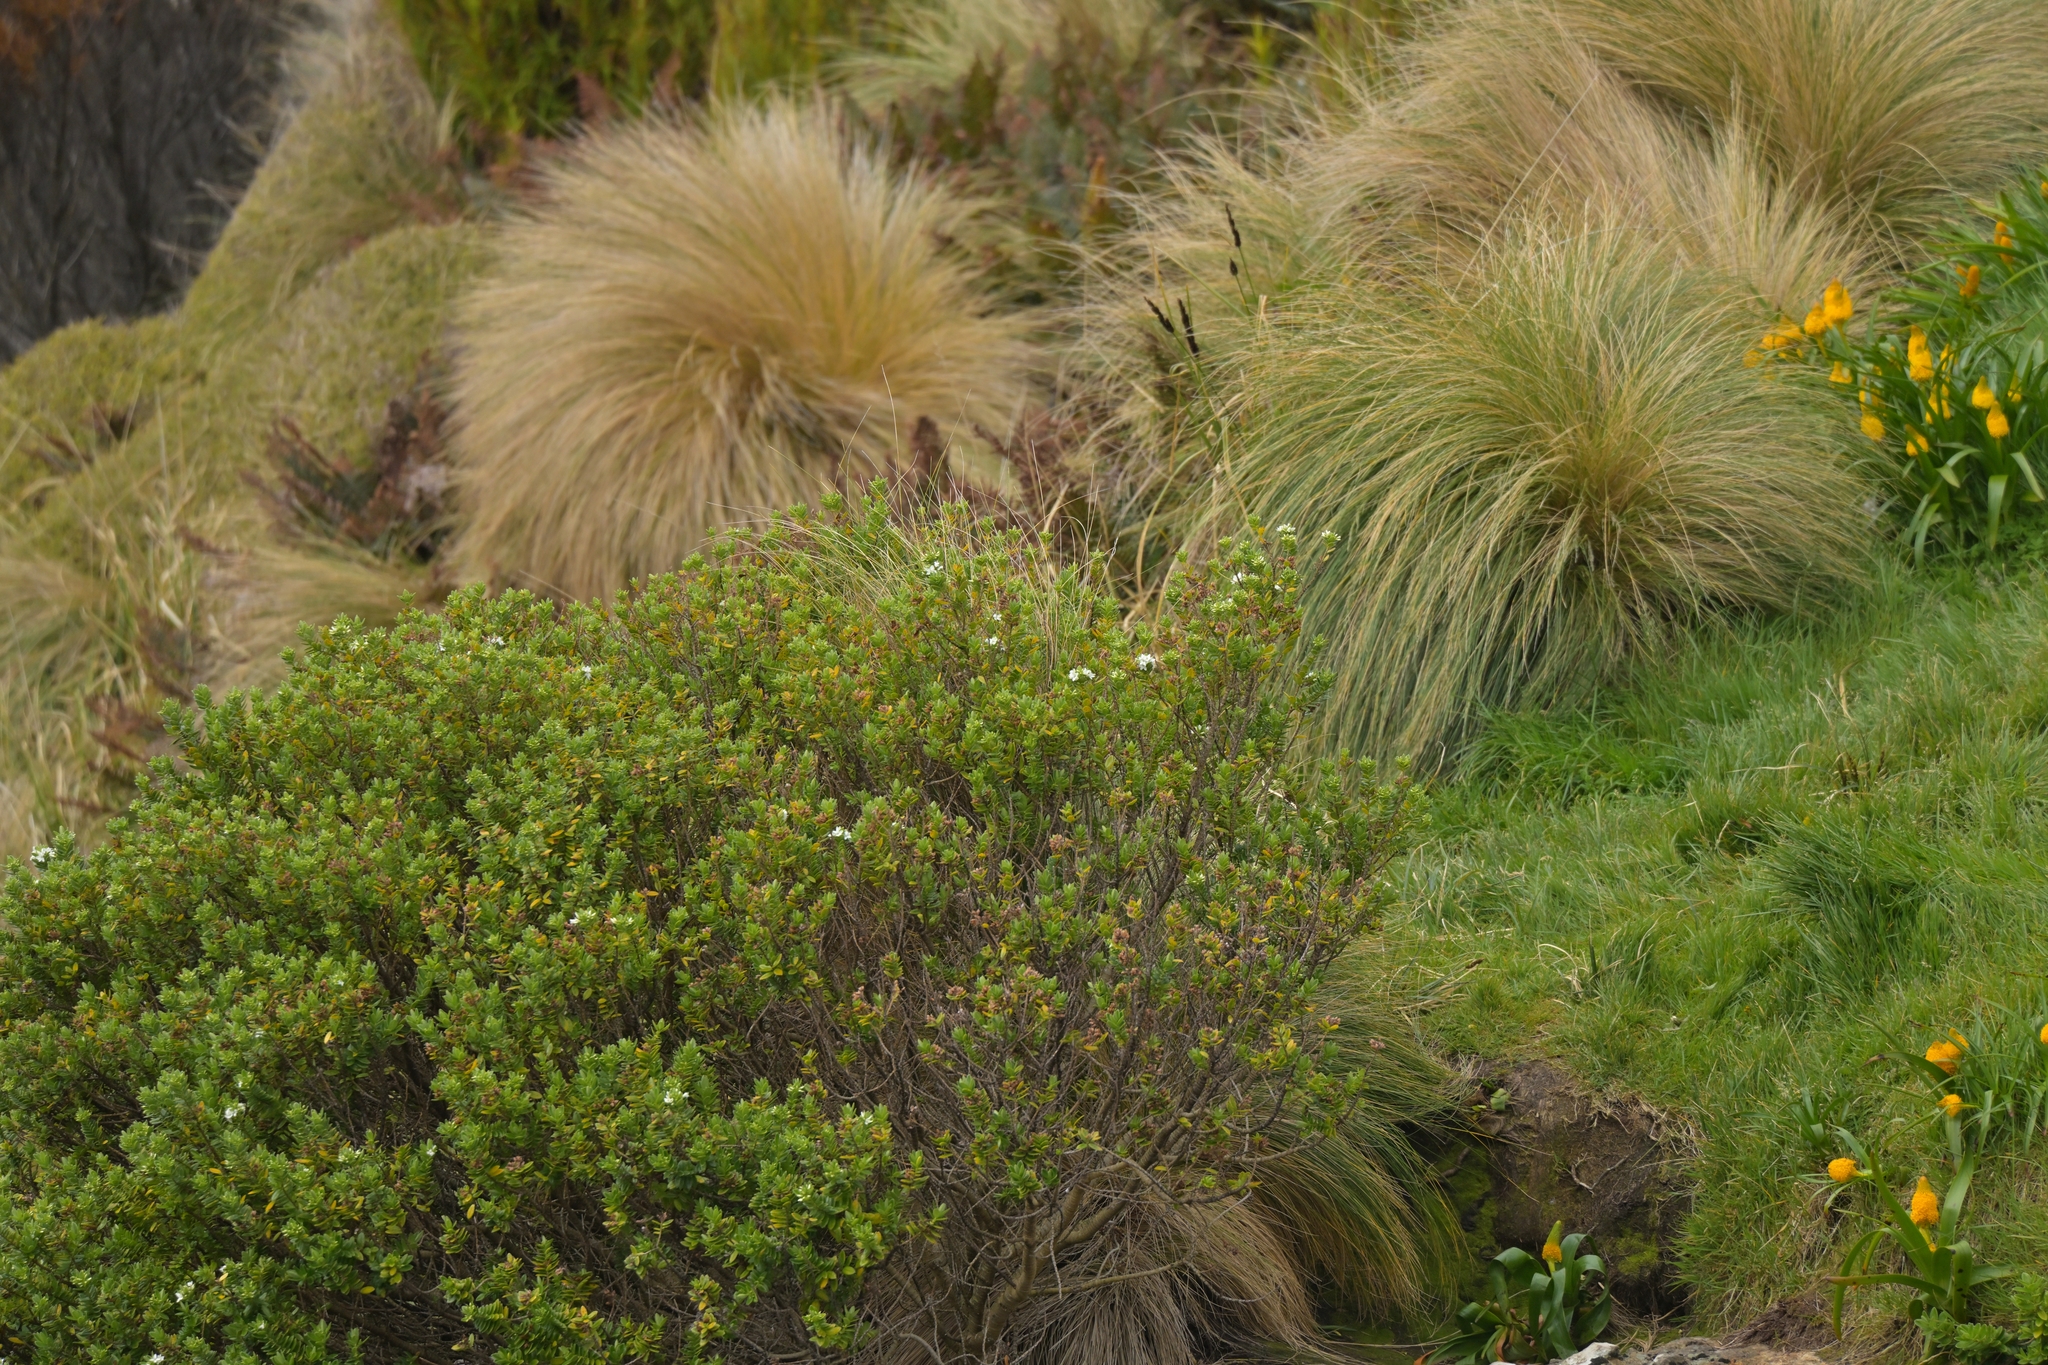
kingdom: Plantae
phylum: Tracheophyta
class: Magnoliopsida
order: Lamiales
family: Plantaginaceae
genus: Veronica
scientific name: Veronica elliptica
